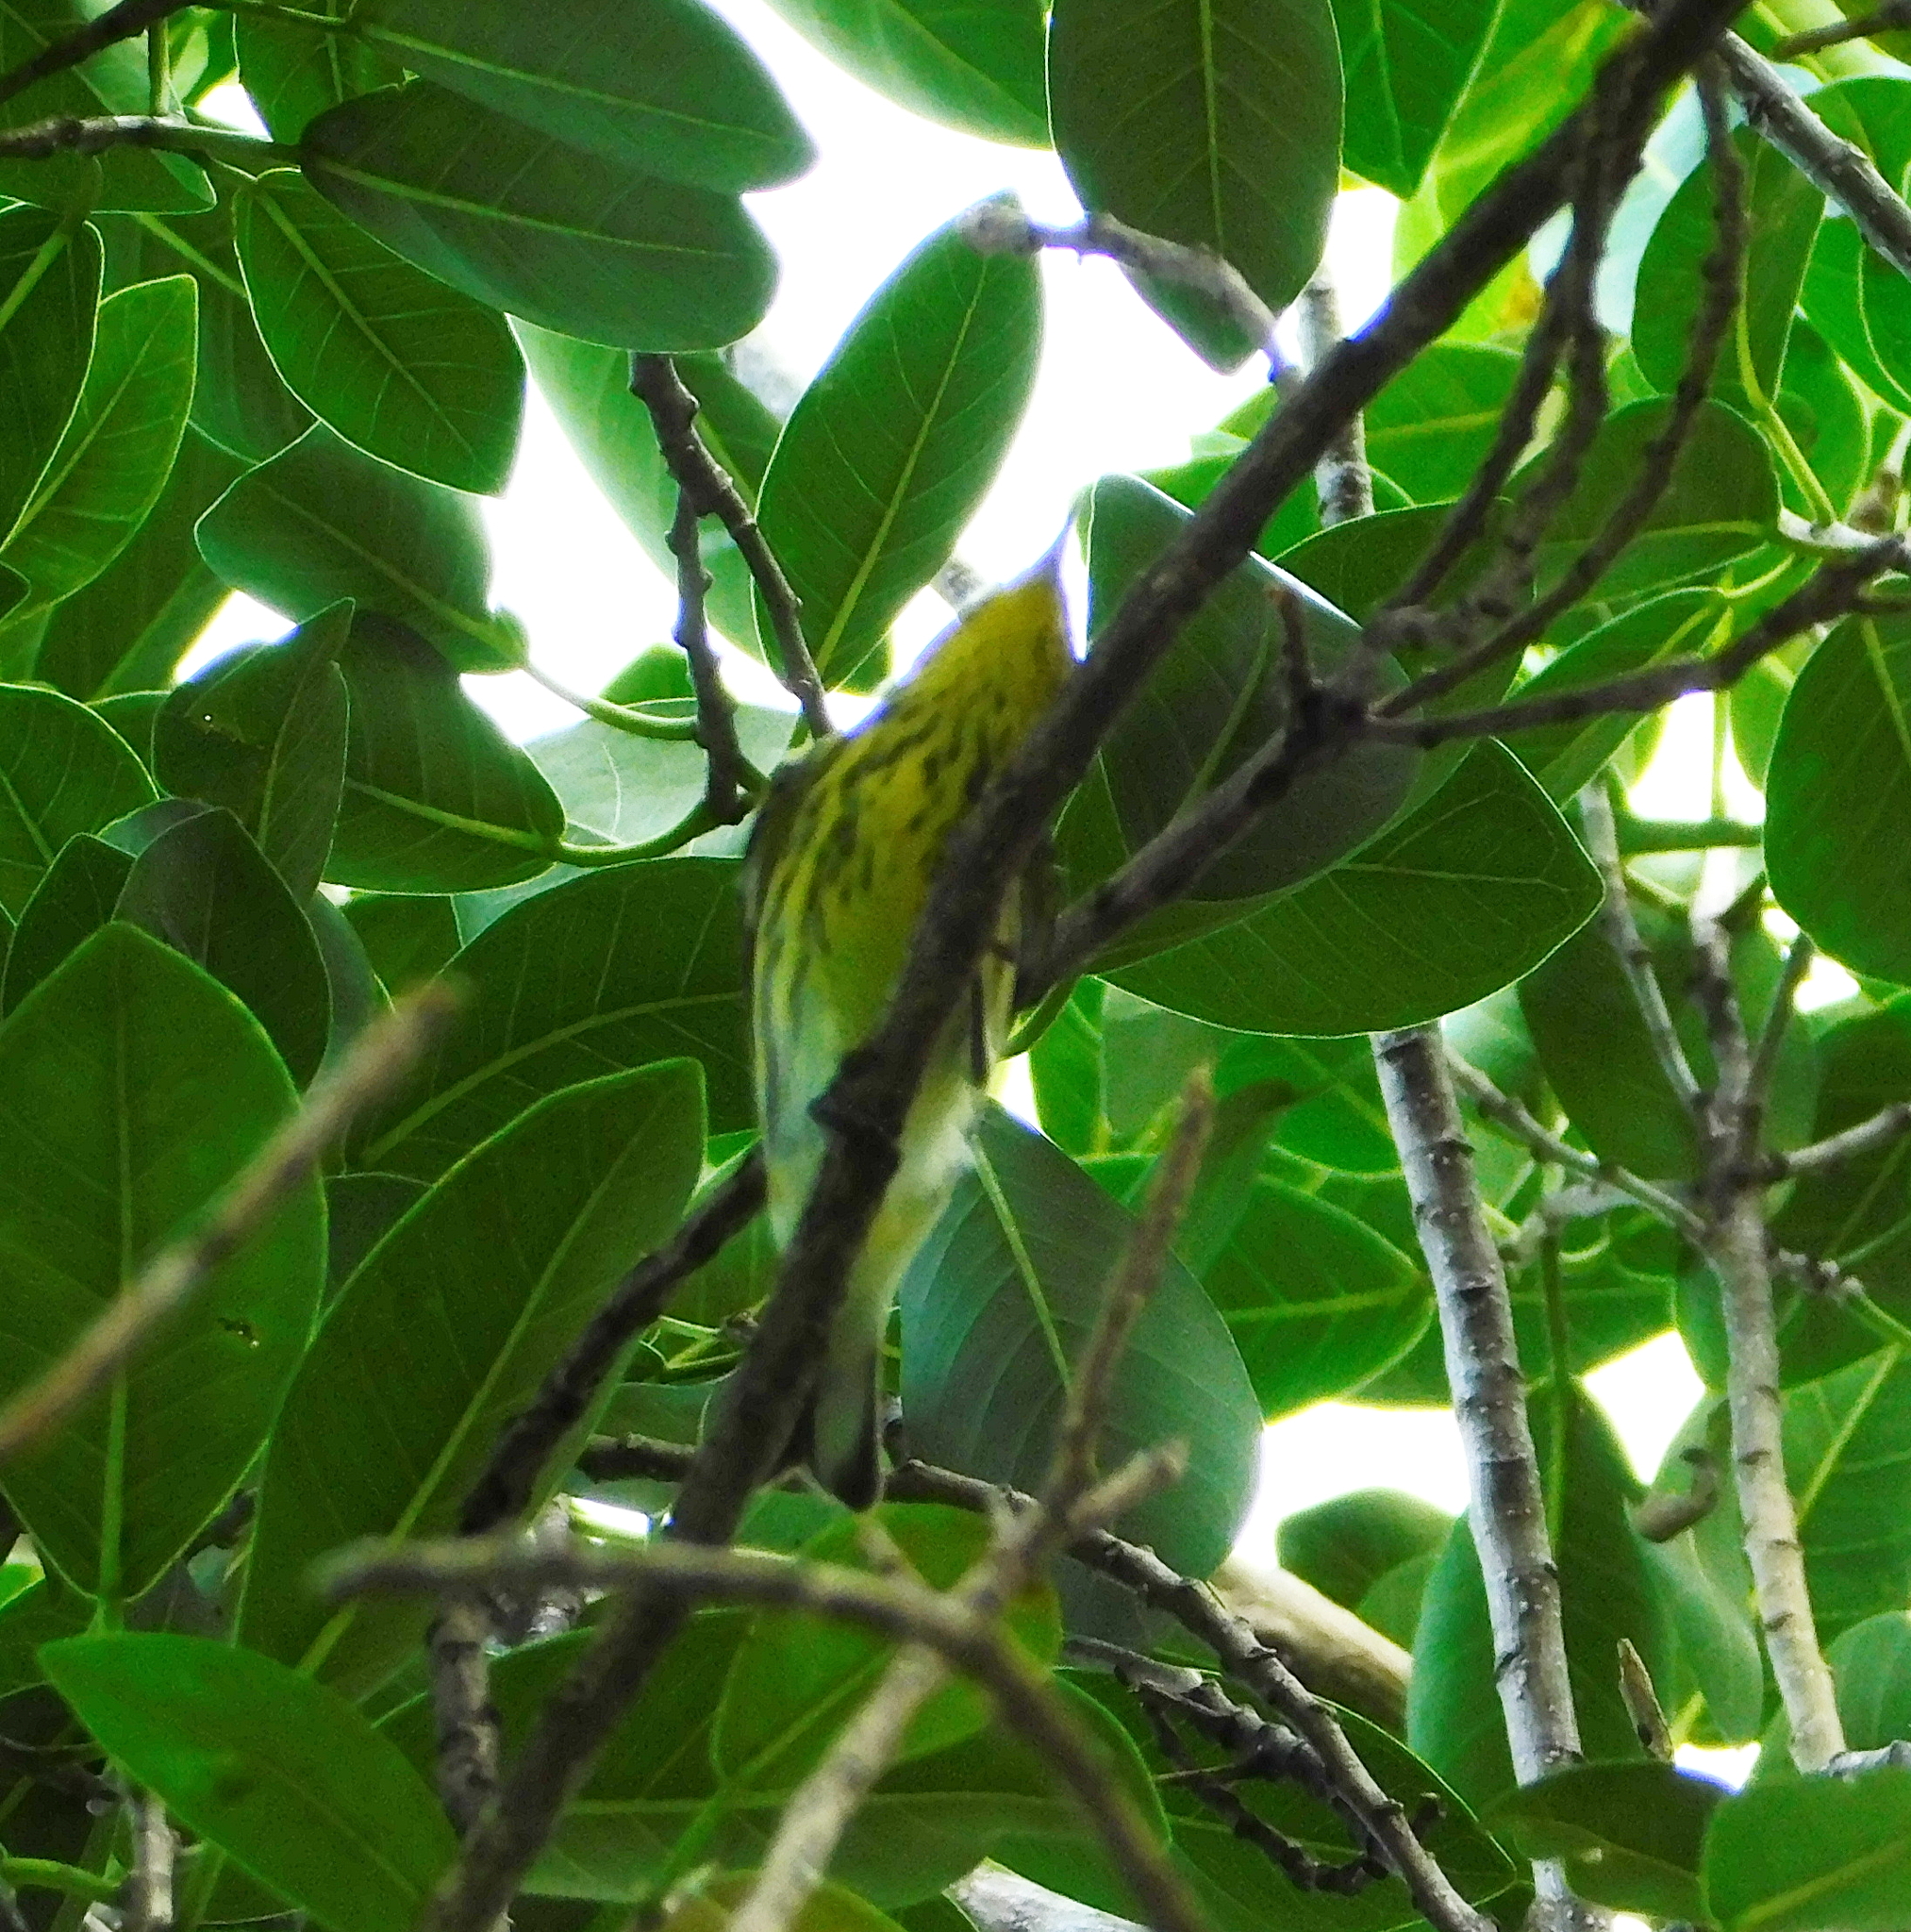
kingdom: Animalia
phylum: Chordata
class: Aves
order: Passeriformes
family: Parulidae
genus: Setophaga
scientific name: Setophaga tigrina
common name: Cape may warbler
